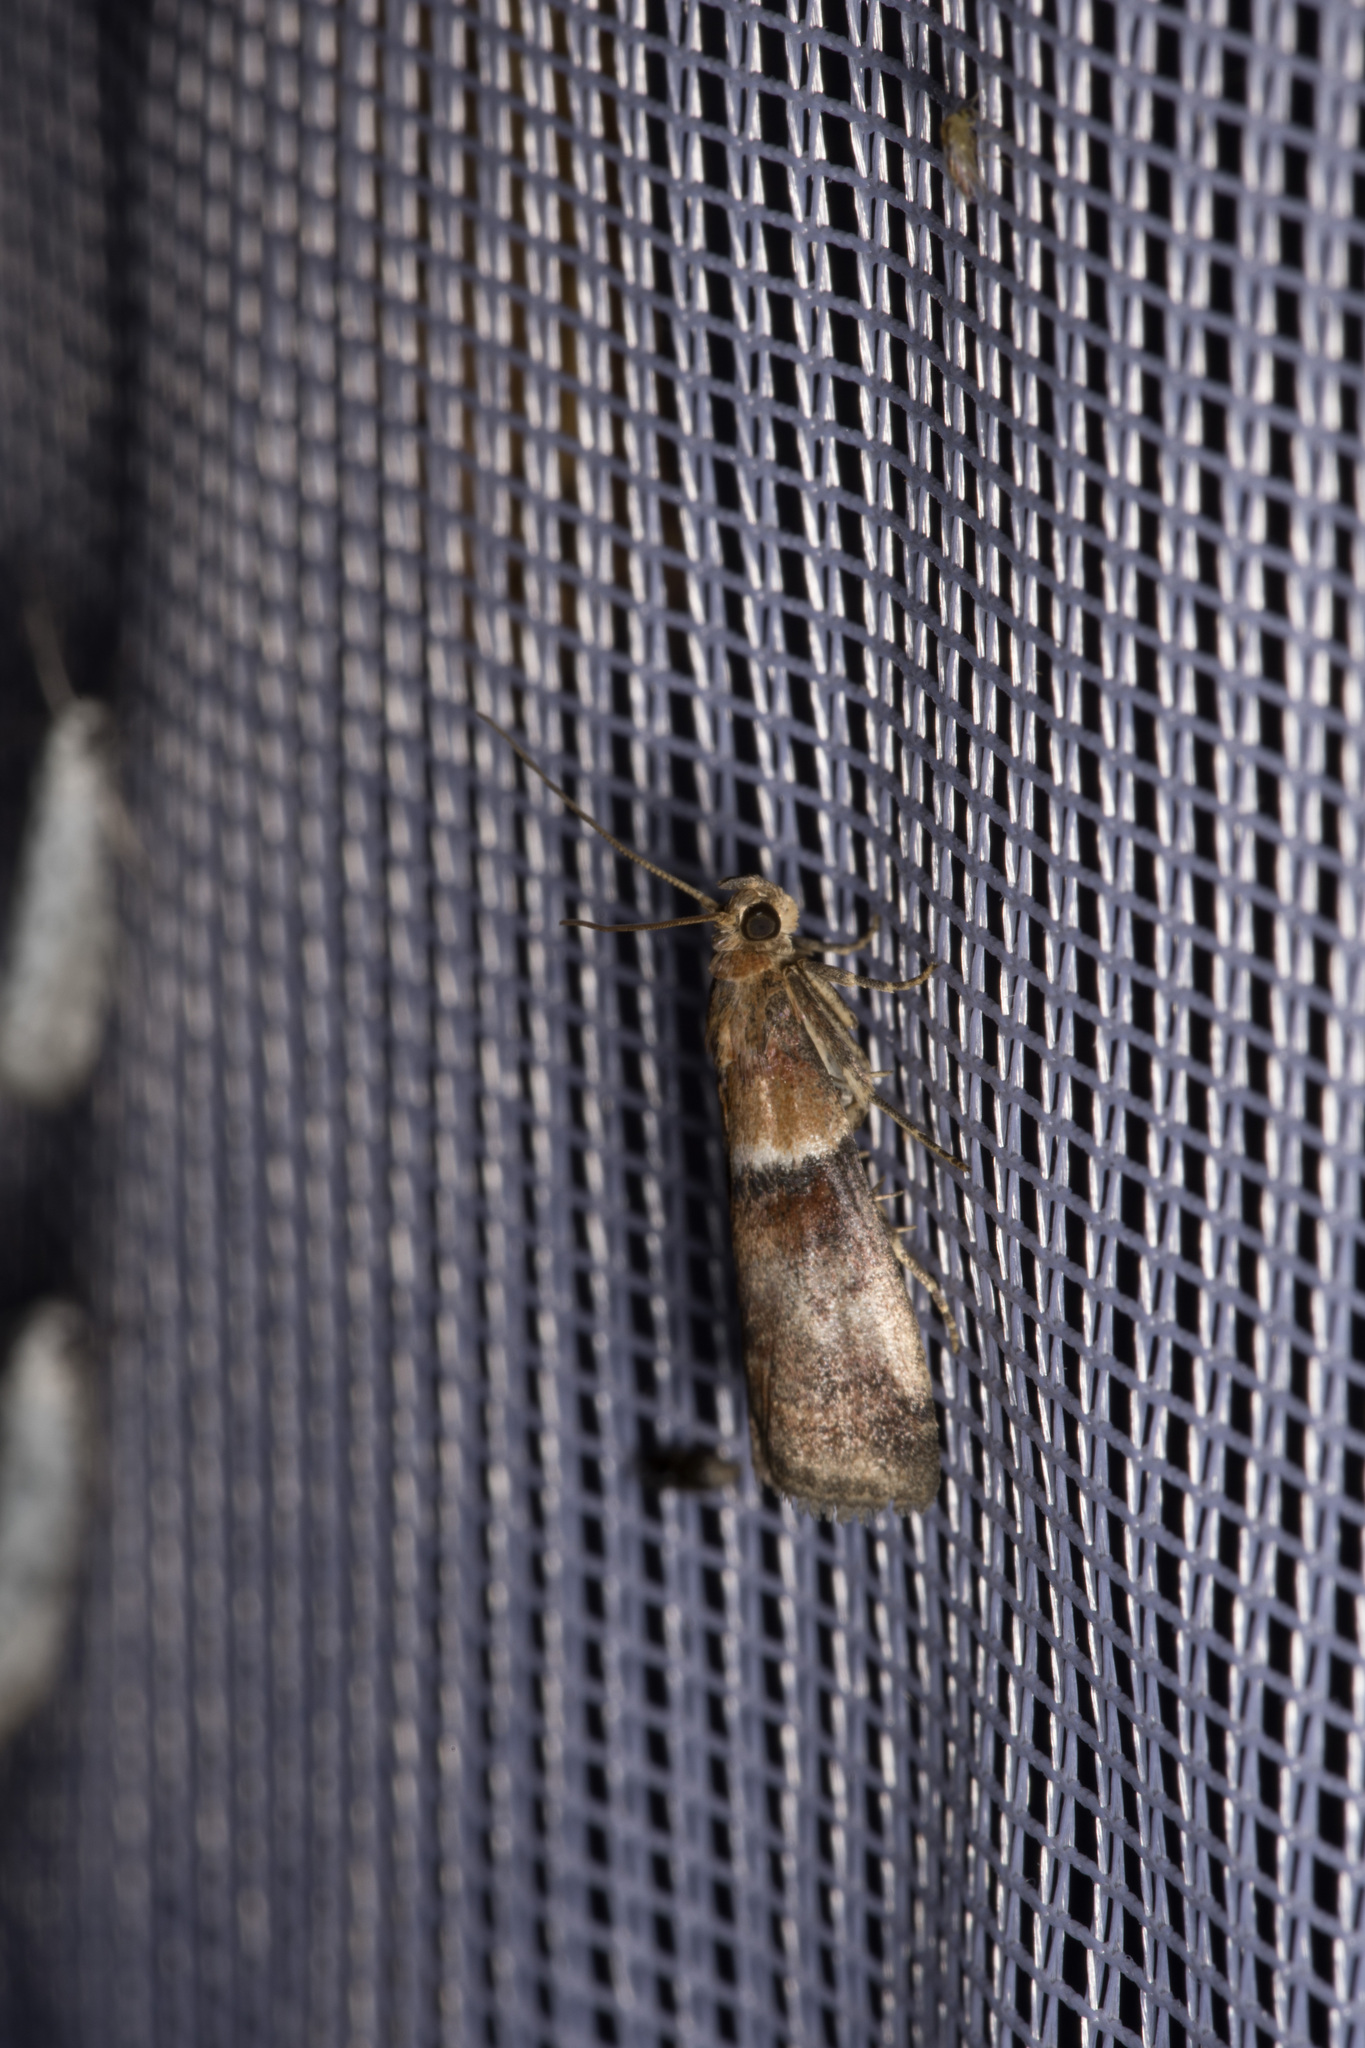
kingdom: Animalia
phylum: Arthropoda
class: Insecta
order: Lepidoptera
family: Pyralidae
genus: Acrobasis
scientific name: Acrobasis repandana
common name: Warted knot-horn
